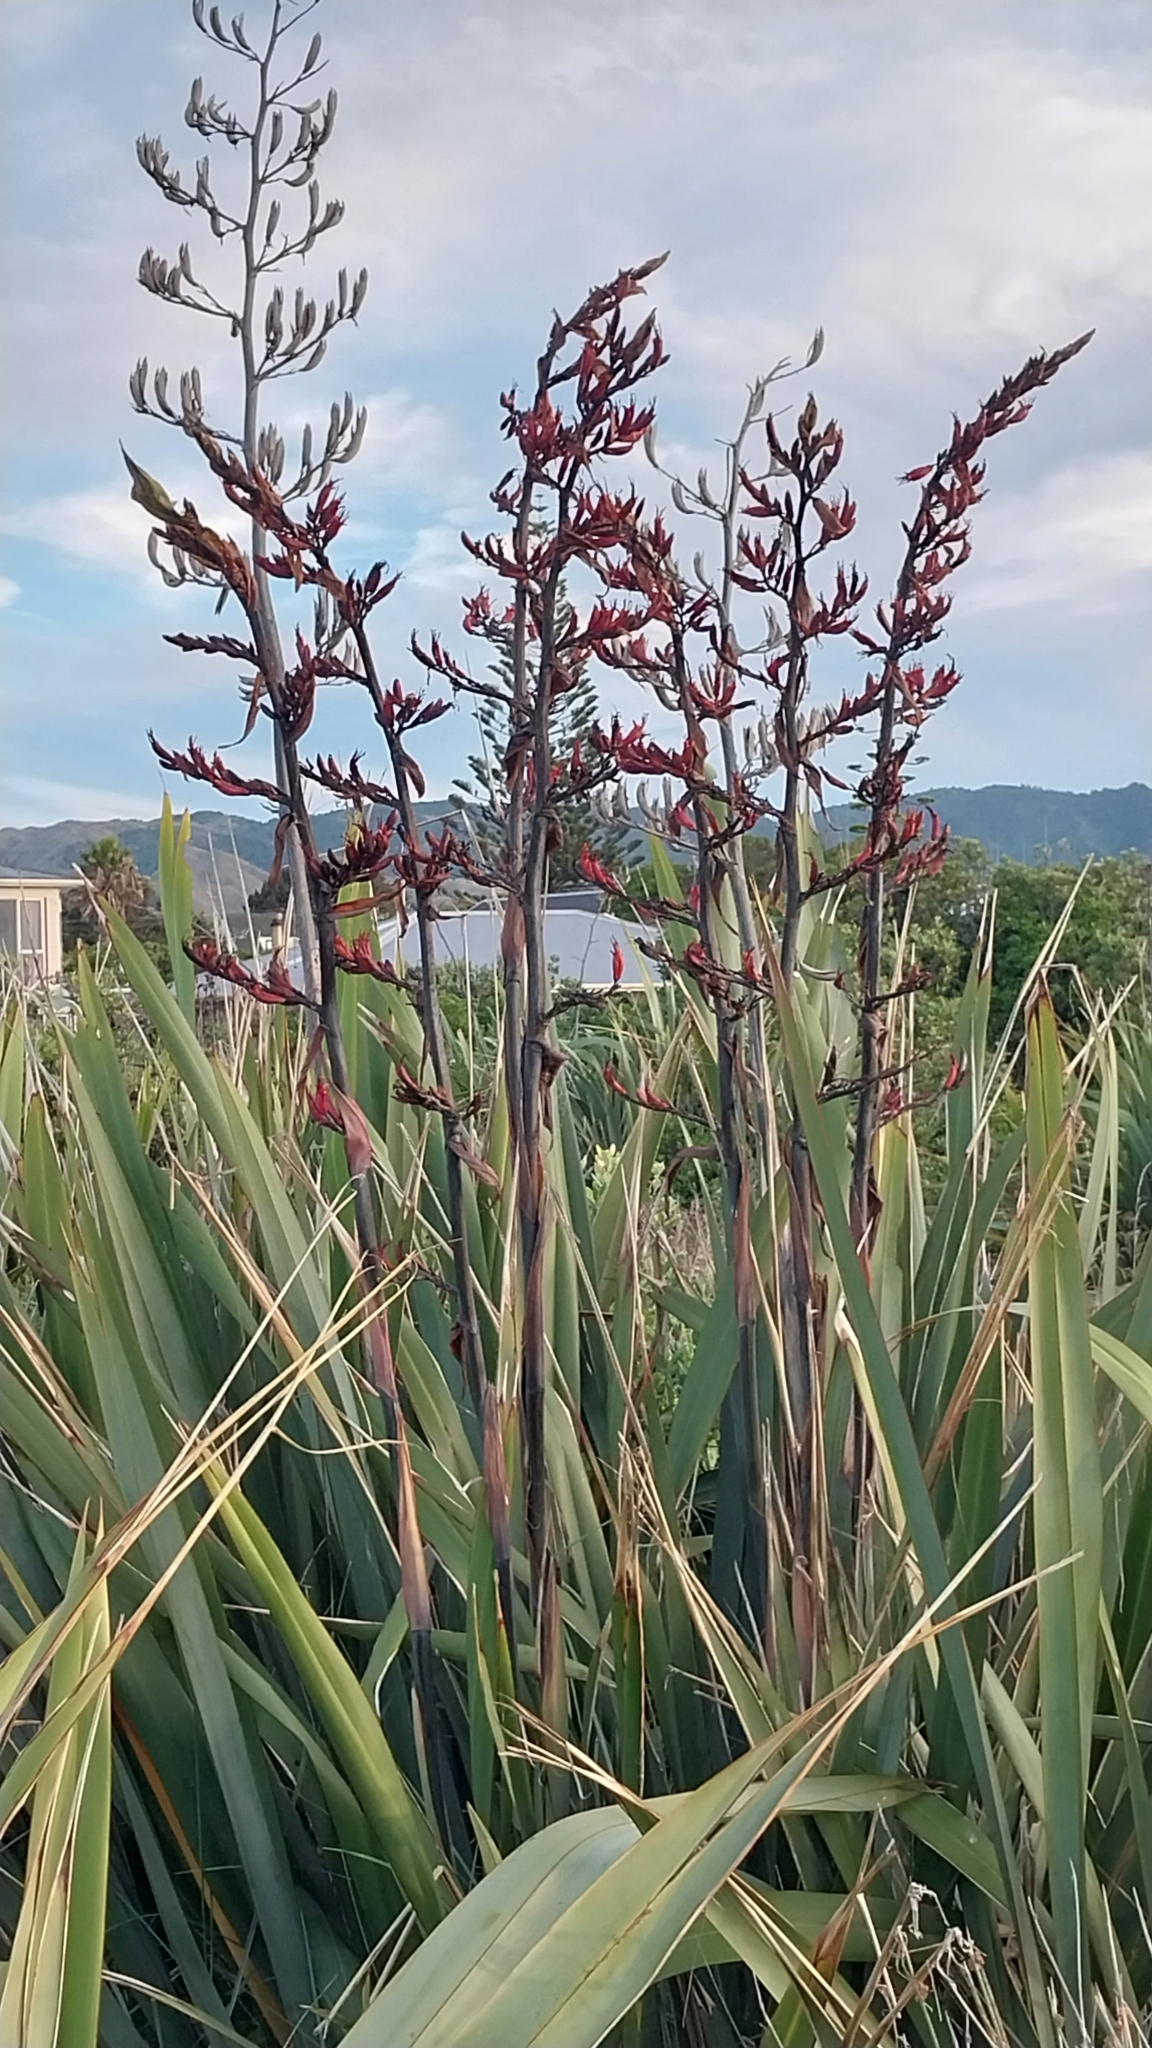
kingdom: Plantae
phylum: Tracheophyta
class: Liliopsida
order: Asparagales
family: Asphodelaceae
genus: Phormium
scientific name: Phormium tenax
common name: New zealand flax
